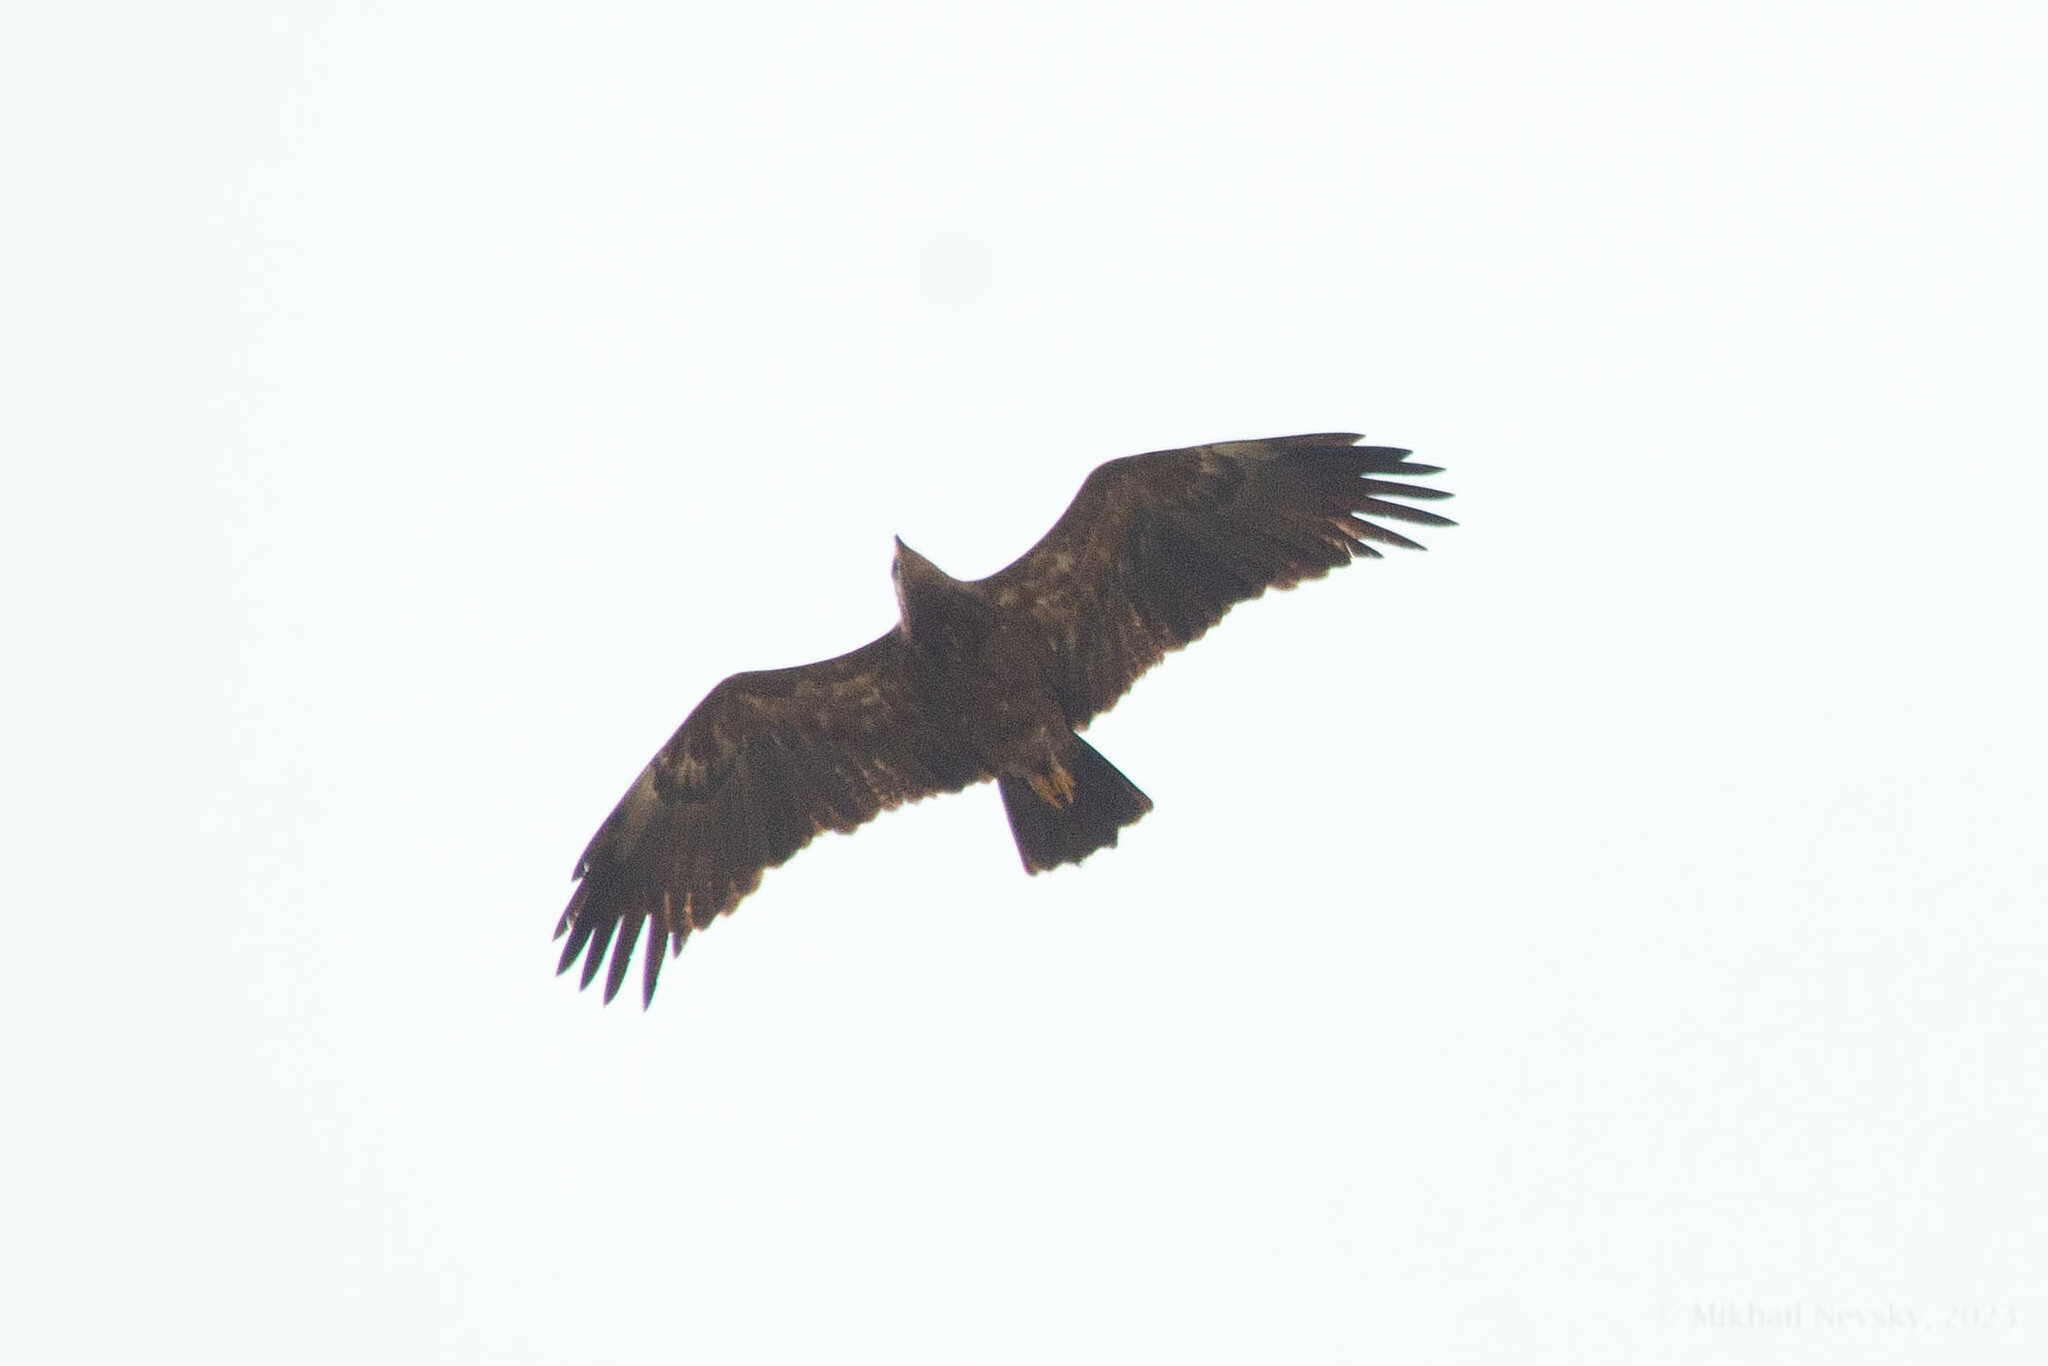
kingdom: Animalia
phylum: Chordata
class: Aves
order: Accipitriformes
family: Accipitridae
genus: Aquila
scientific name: Aquila pomarina
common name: Lesser spotted eagle
